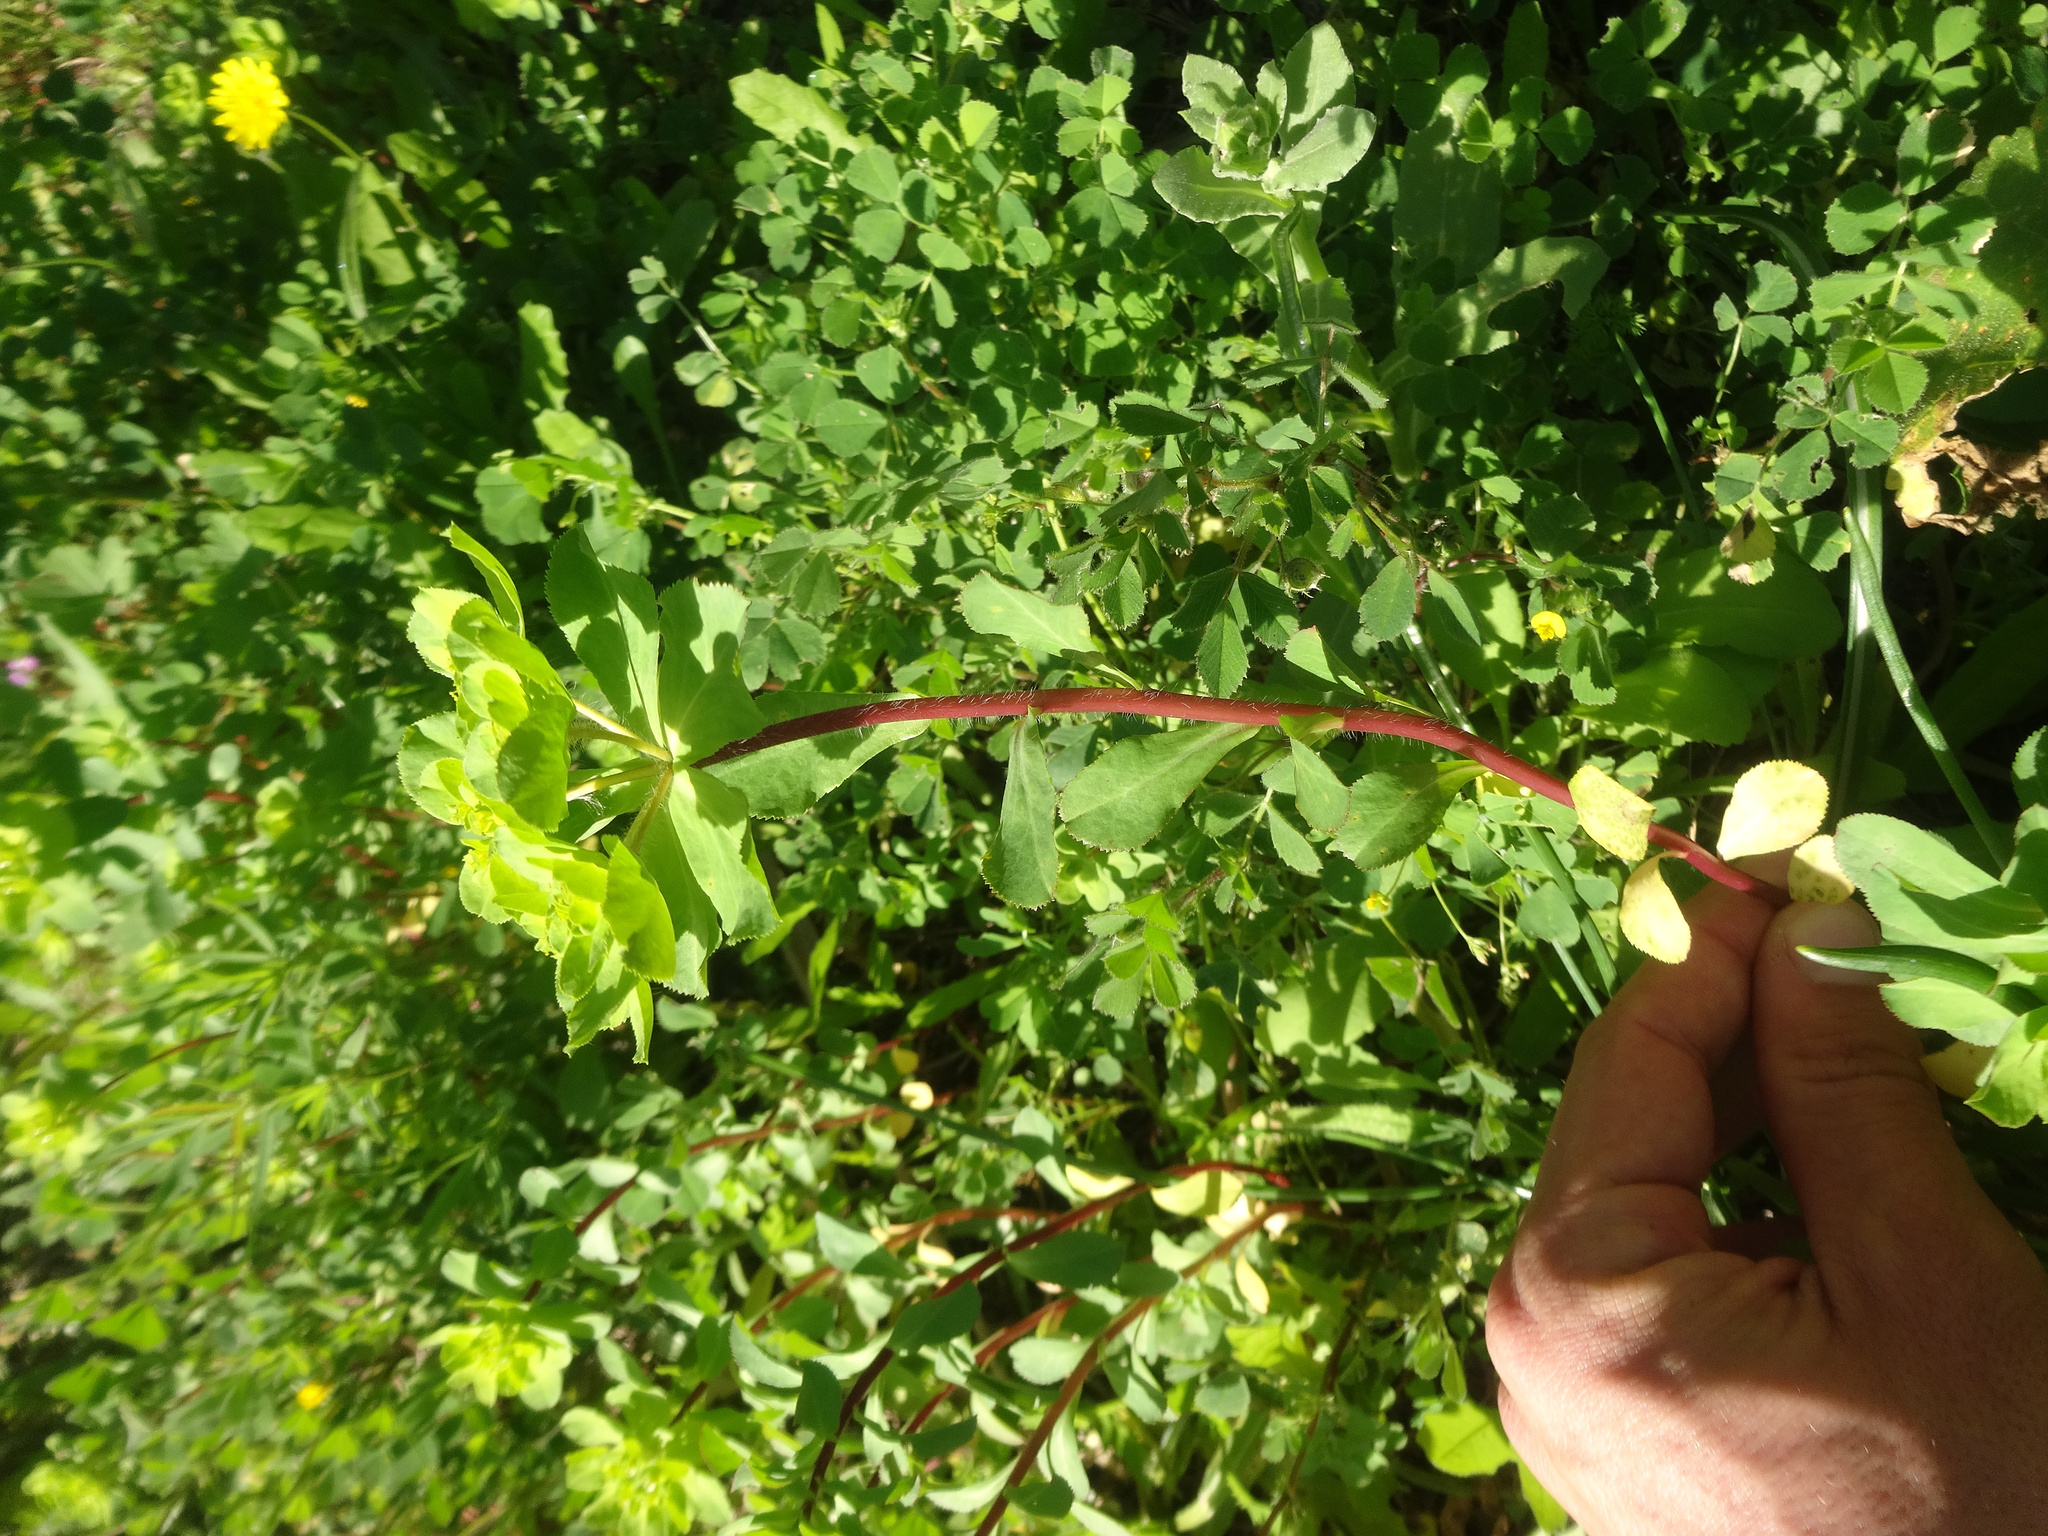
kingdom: Plantae
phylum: Tracheophyta
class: Magnoliopsida
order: Malpighiales
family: Euphorbiaceae
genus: Euphorbia
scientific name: Euphorbia helioscopia
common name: Sun spurge
